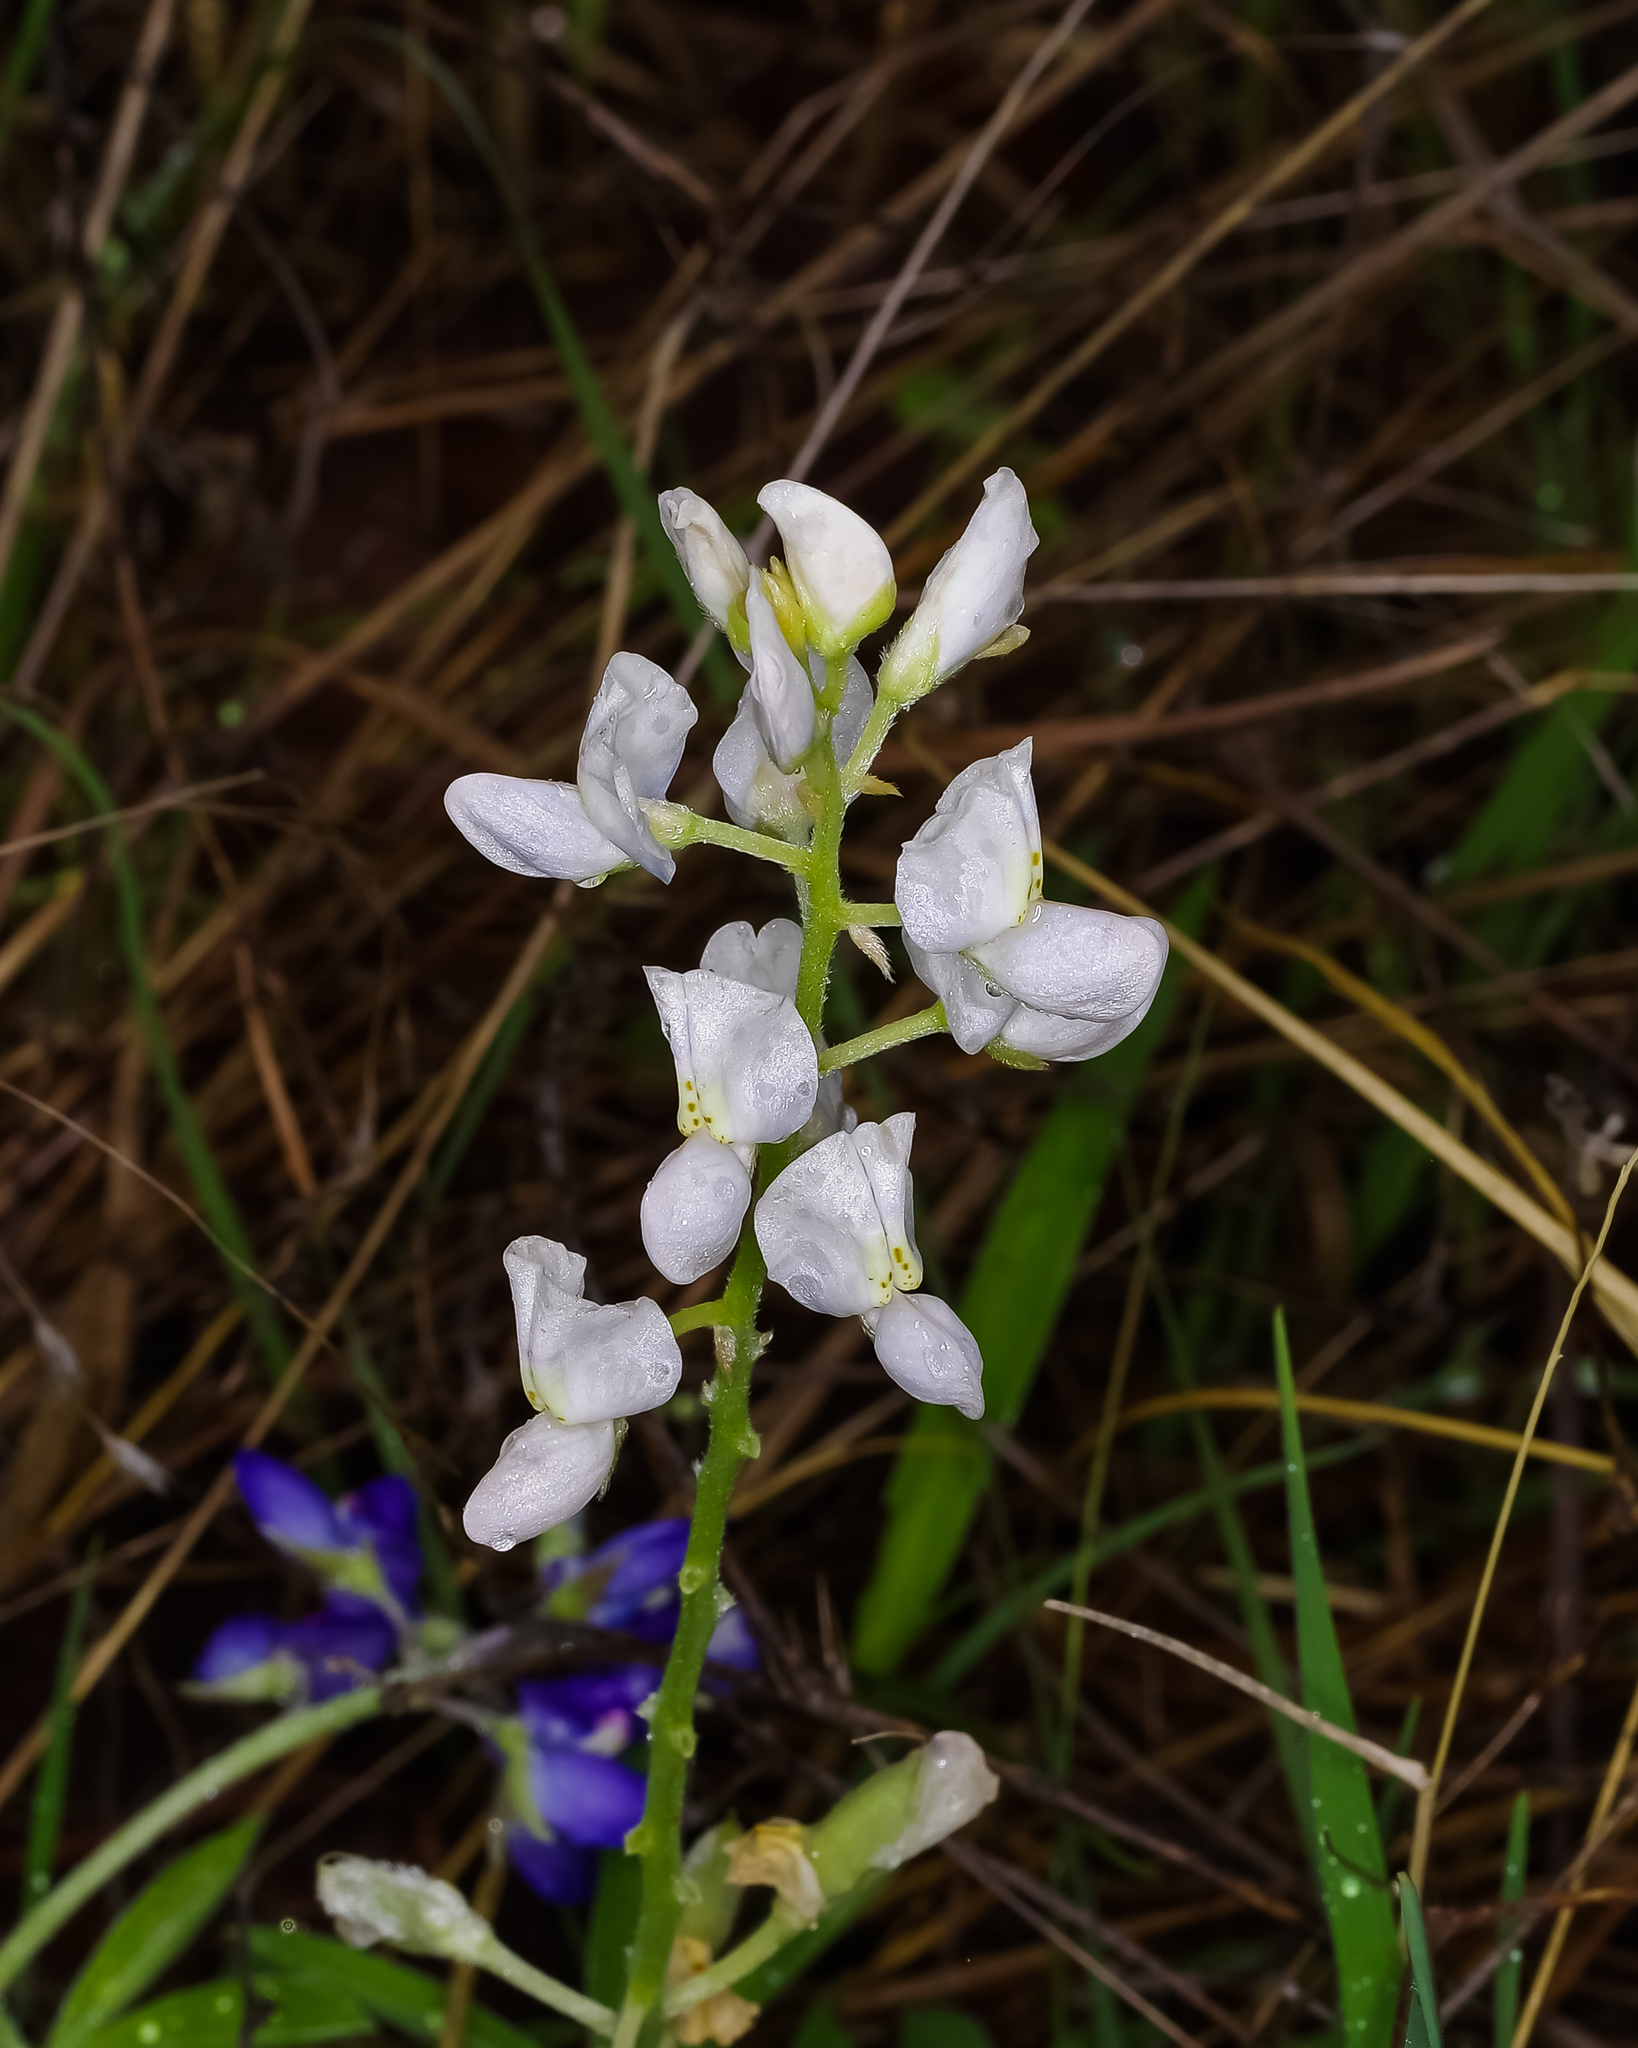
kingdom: Plantae
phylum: Tracheophyta
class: Magnoliopsida
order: Fabales
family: Fabaceae
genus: Lupinus
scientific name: Lupinus texensis
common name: Texas bluebonnet
